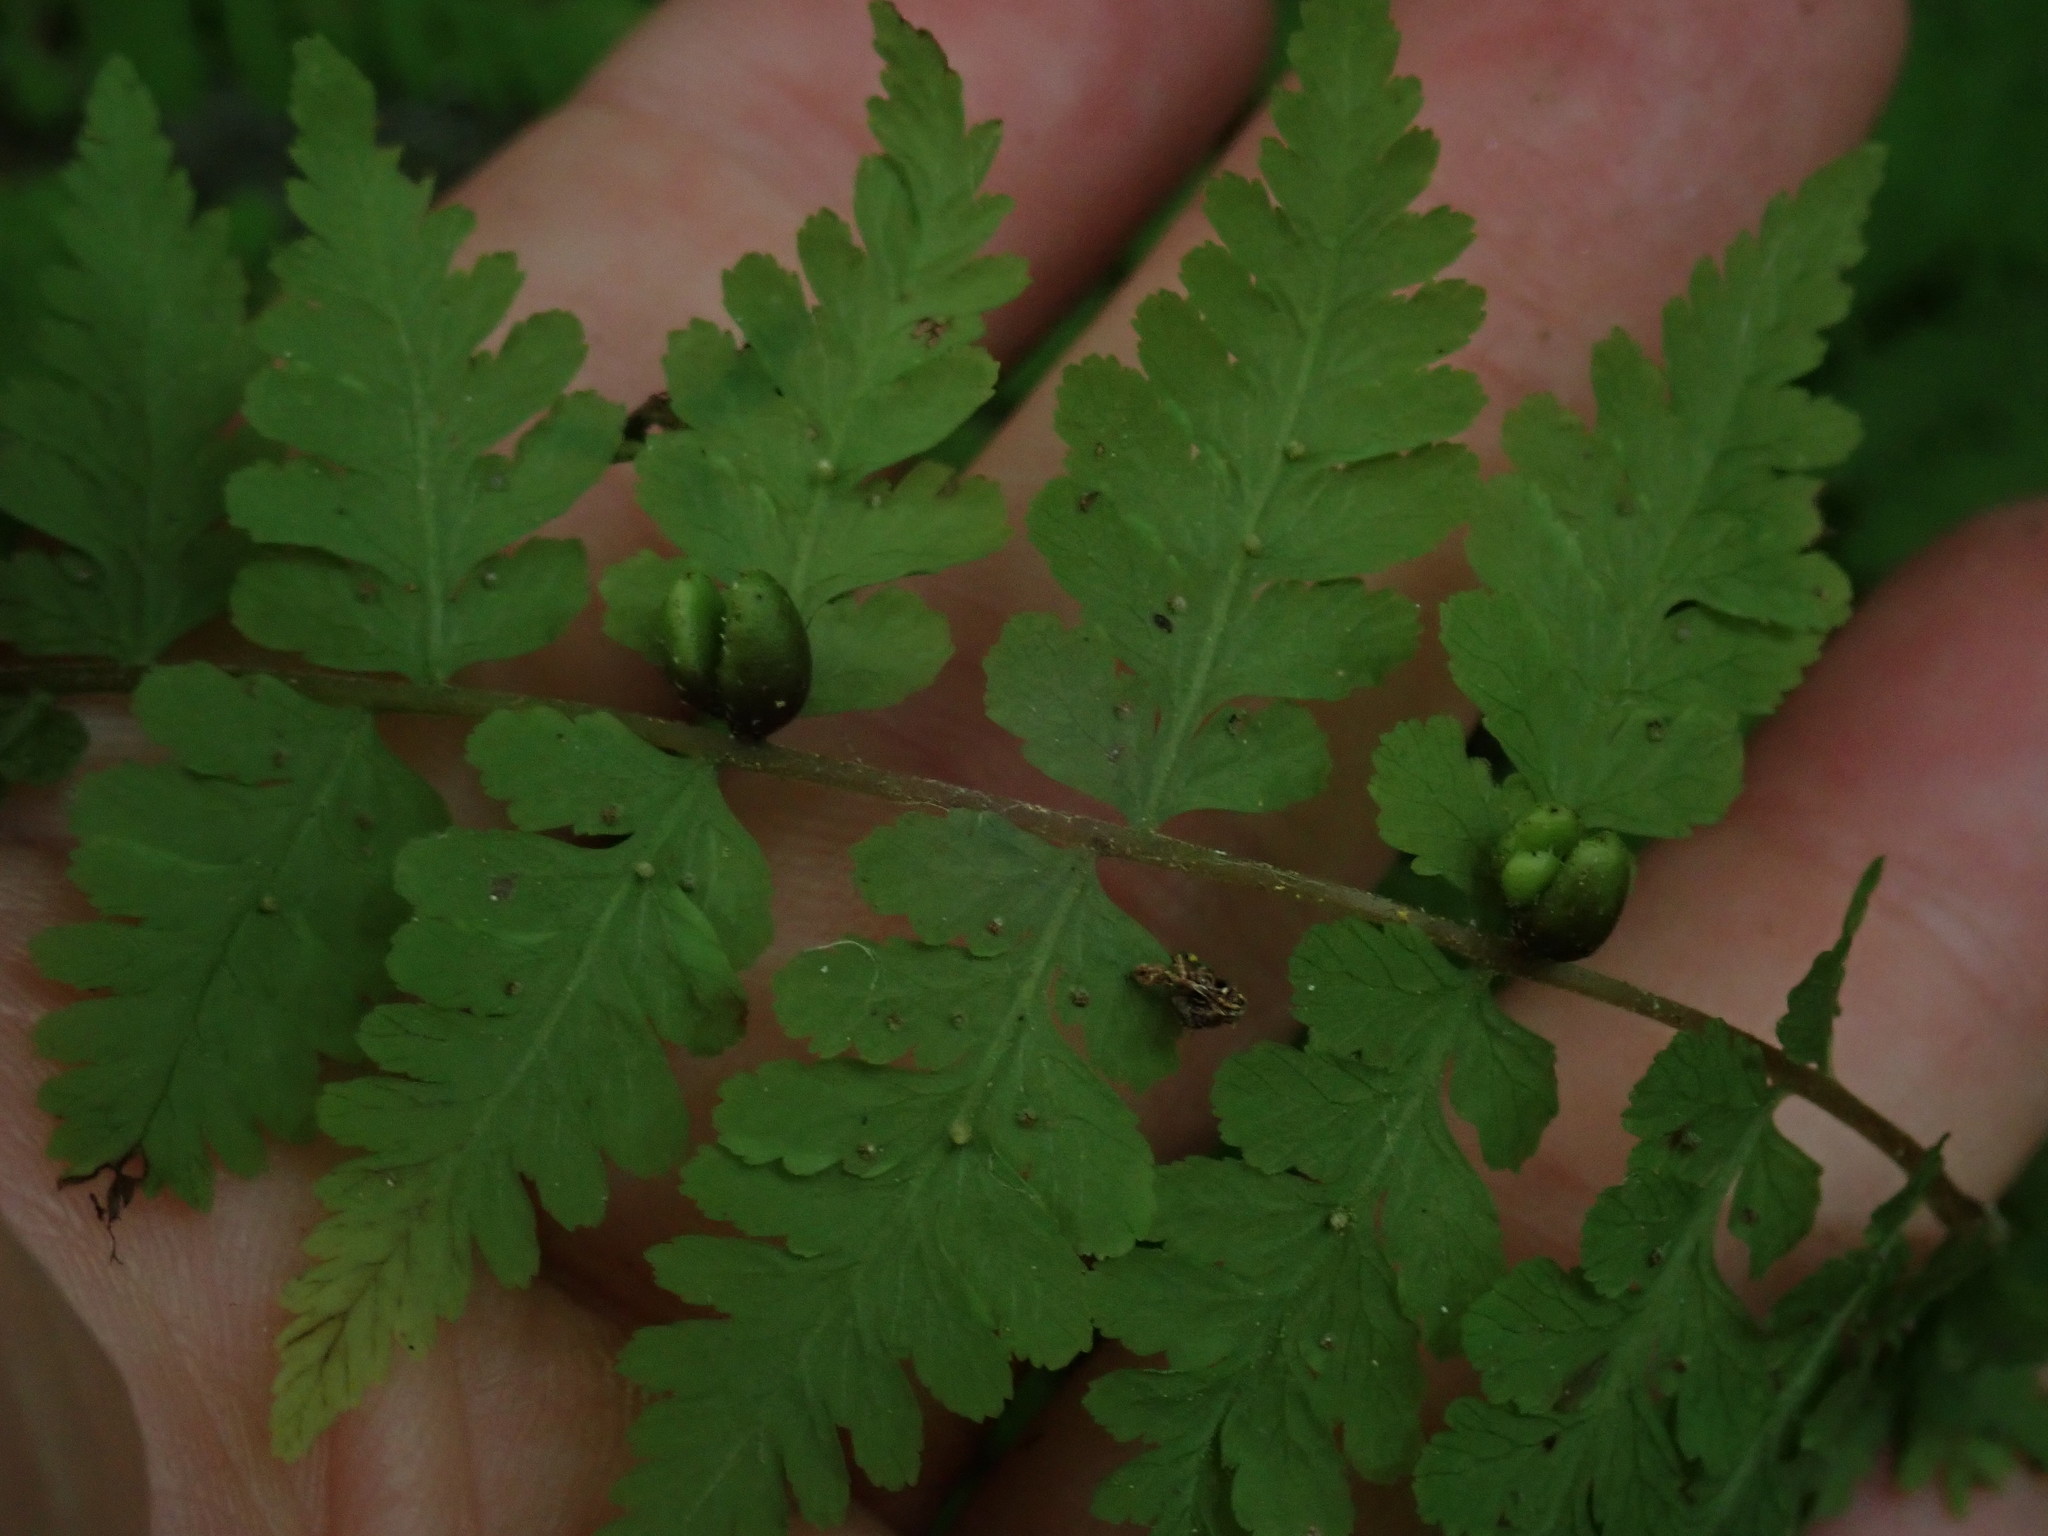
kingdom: Plantae
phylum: Tracheophyta
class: Polypodiopsida
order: Polypodiales
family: Cystopteridaceae
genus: Cystopteris
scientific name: Cystopteris bulbifera
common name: Bulblet bladder fern
